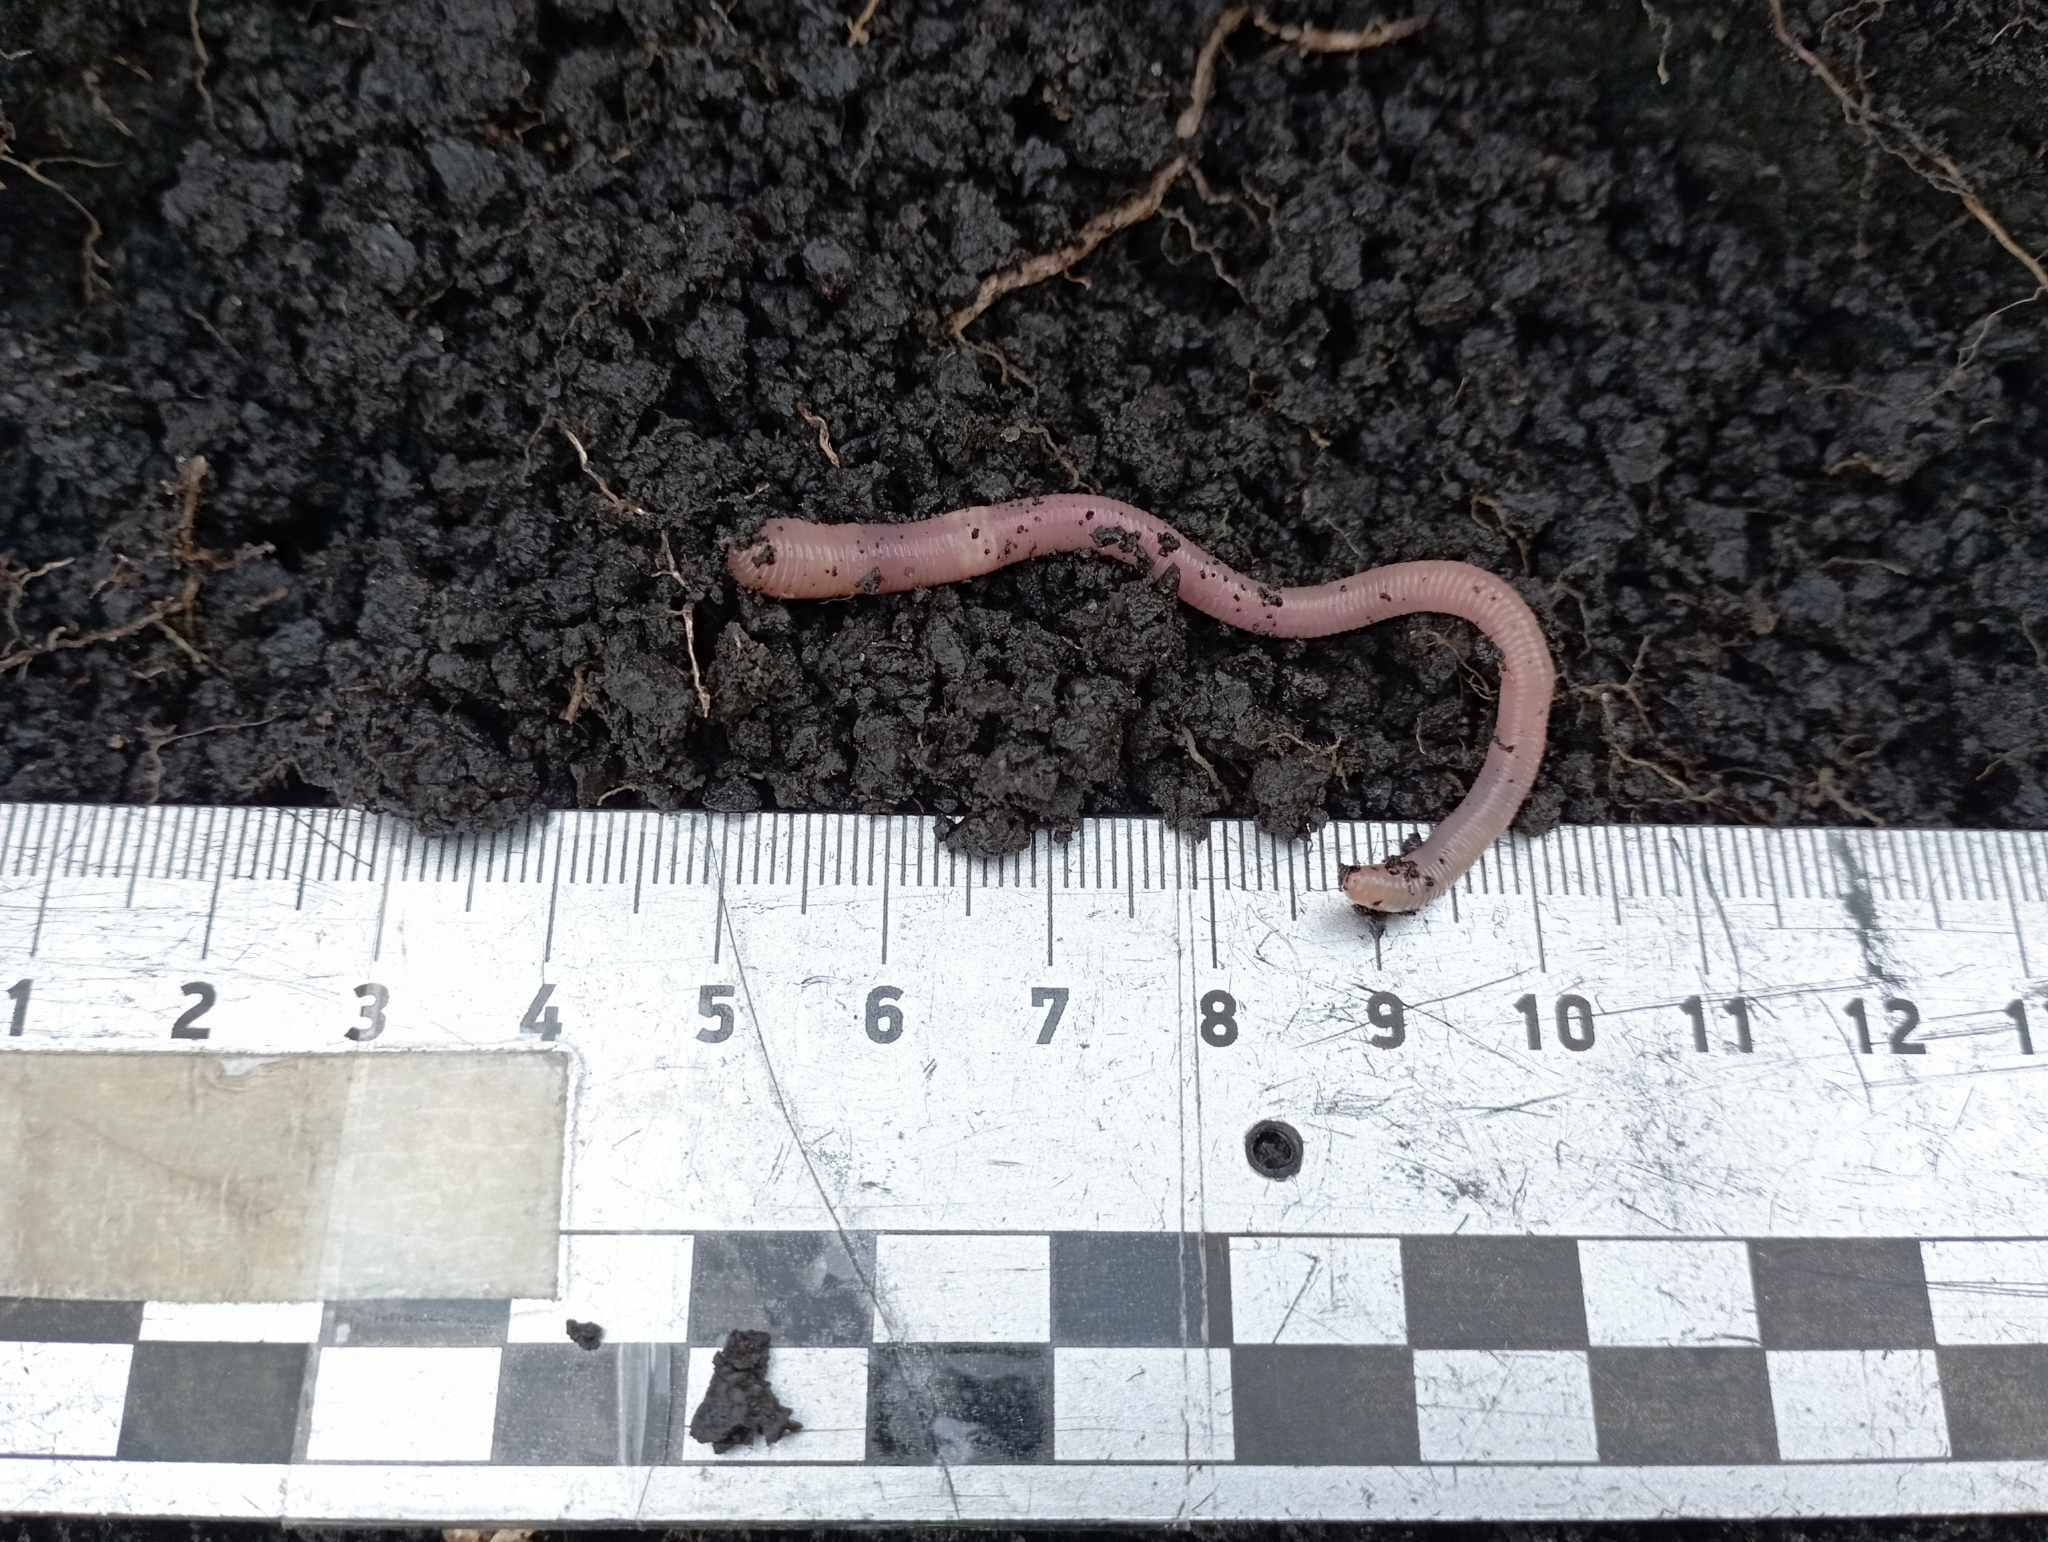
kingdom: Animalia
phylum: Annelida
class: Clitellata
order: Crassiclitellata
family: Lumbricidae
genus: Aporrectodea
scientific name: Aporrectodea caliginosa
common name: Grey worm
